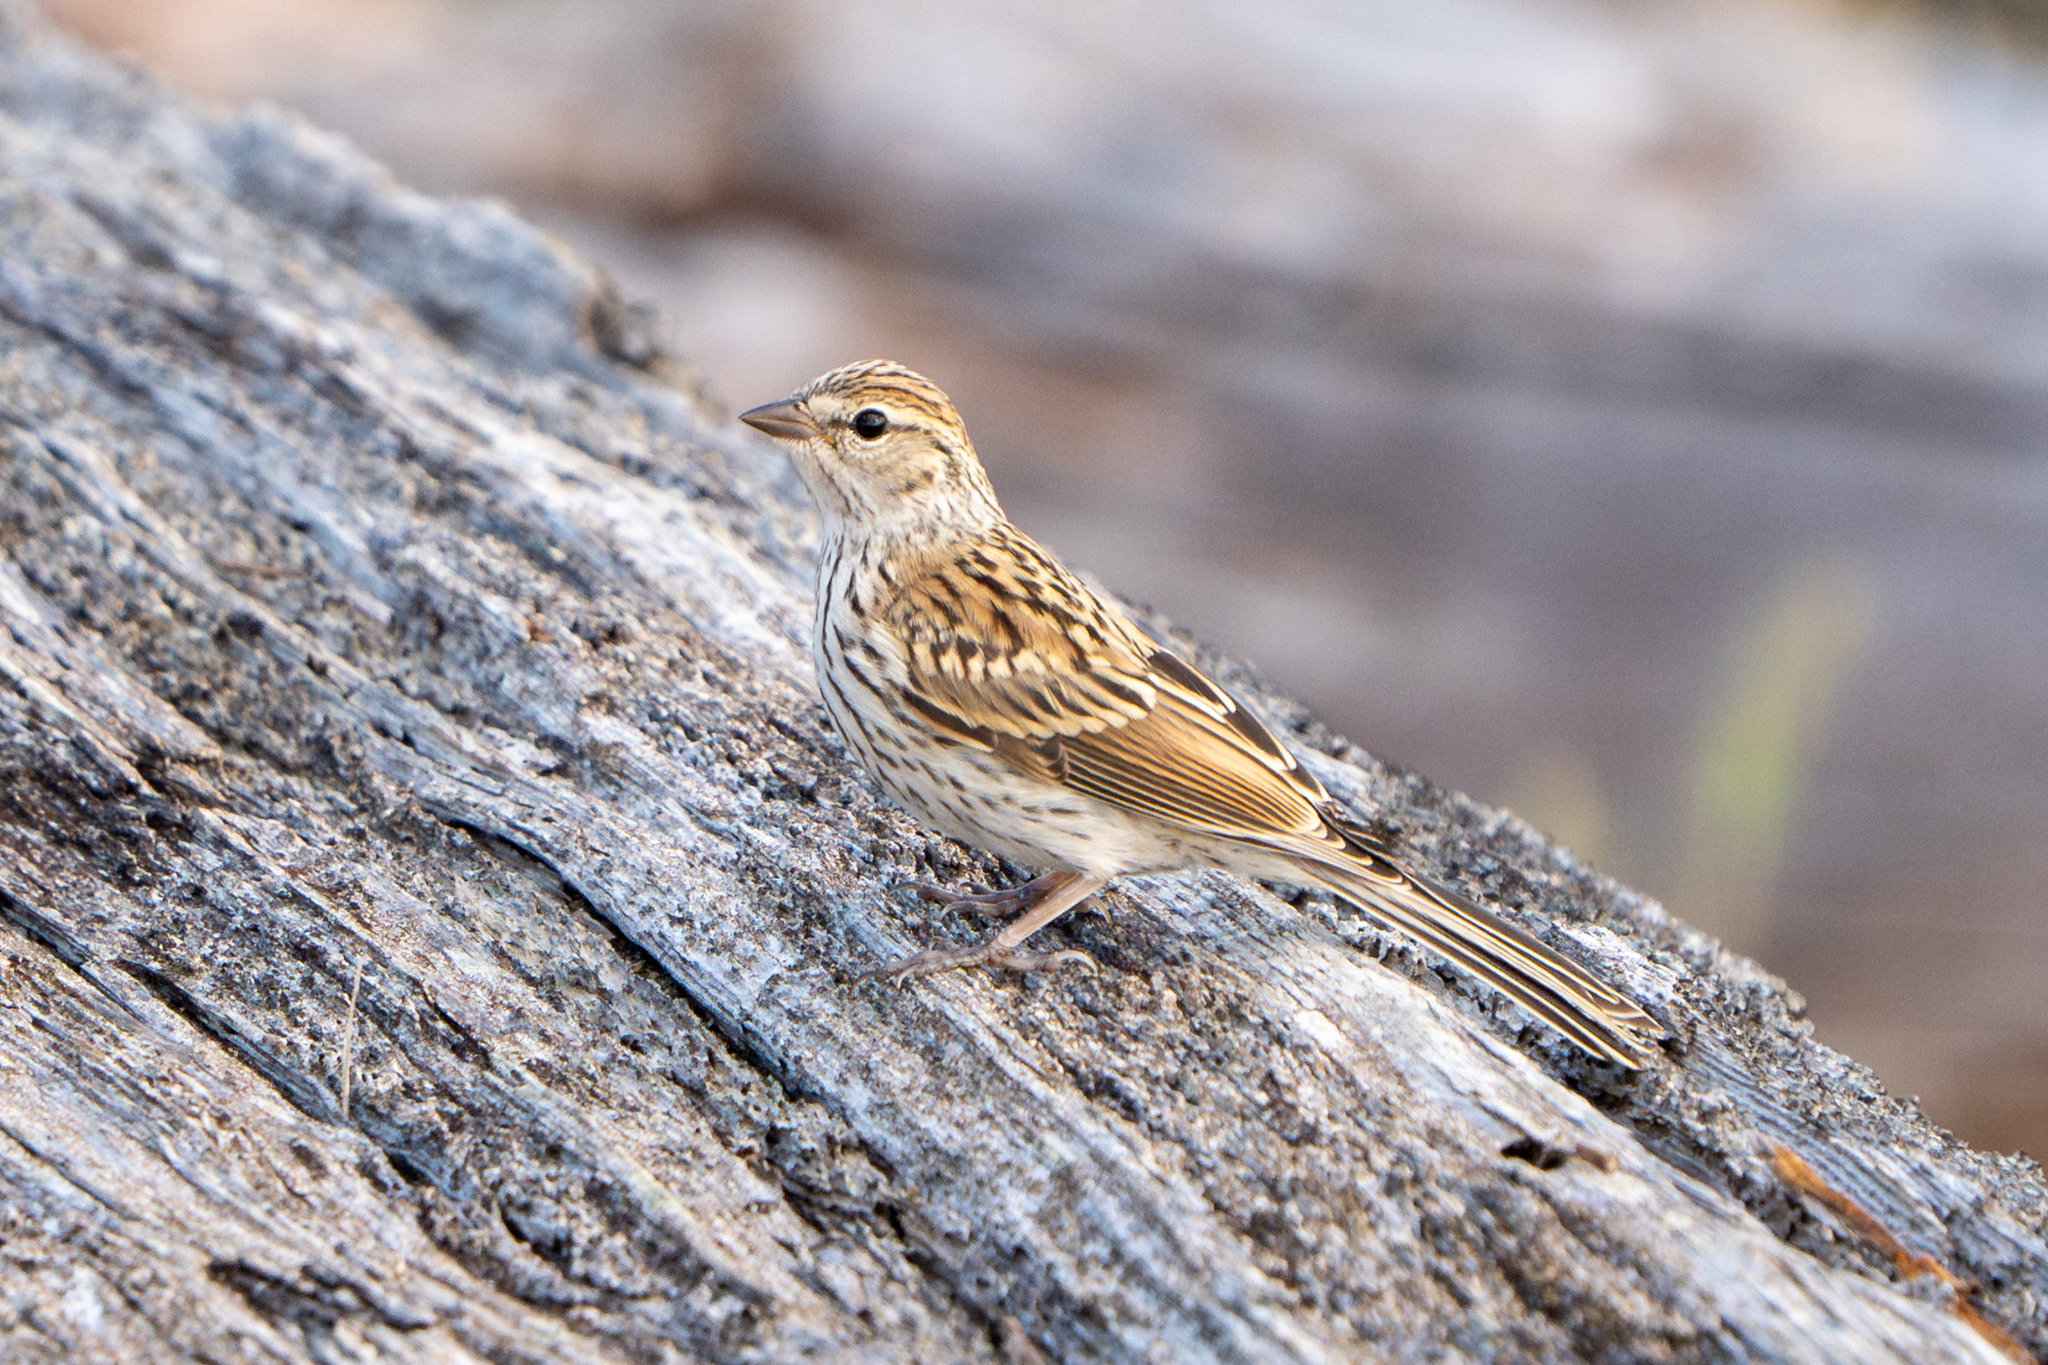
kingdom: Animalia
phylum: Chordata
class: Aves
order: Passeriformes
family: Passerellidae
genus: Spizella
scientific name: Spizella passerina
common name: Chipping sparrow
